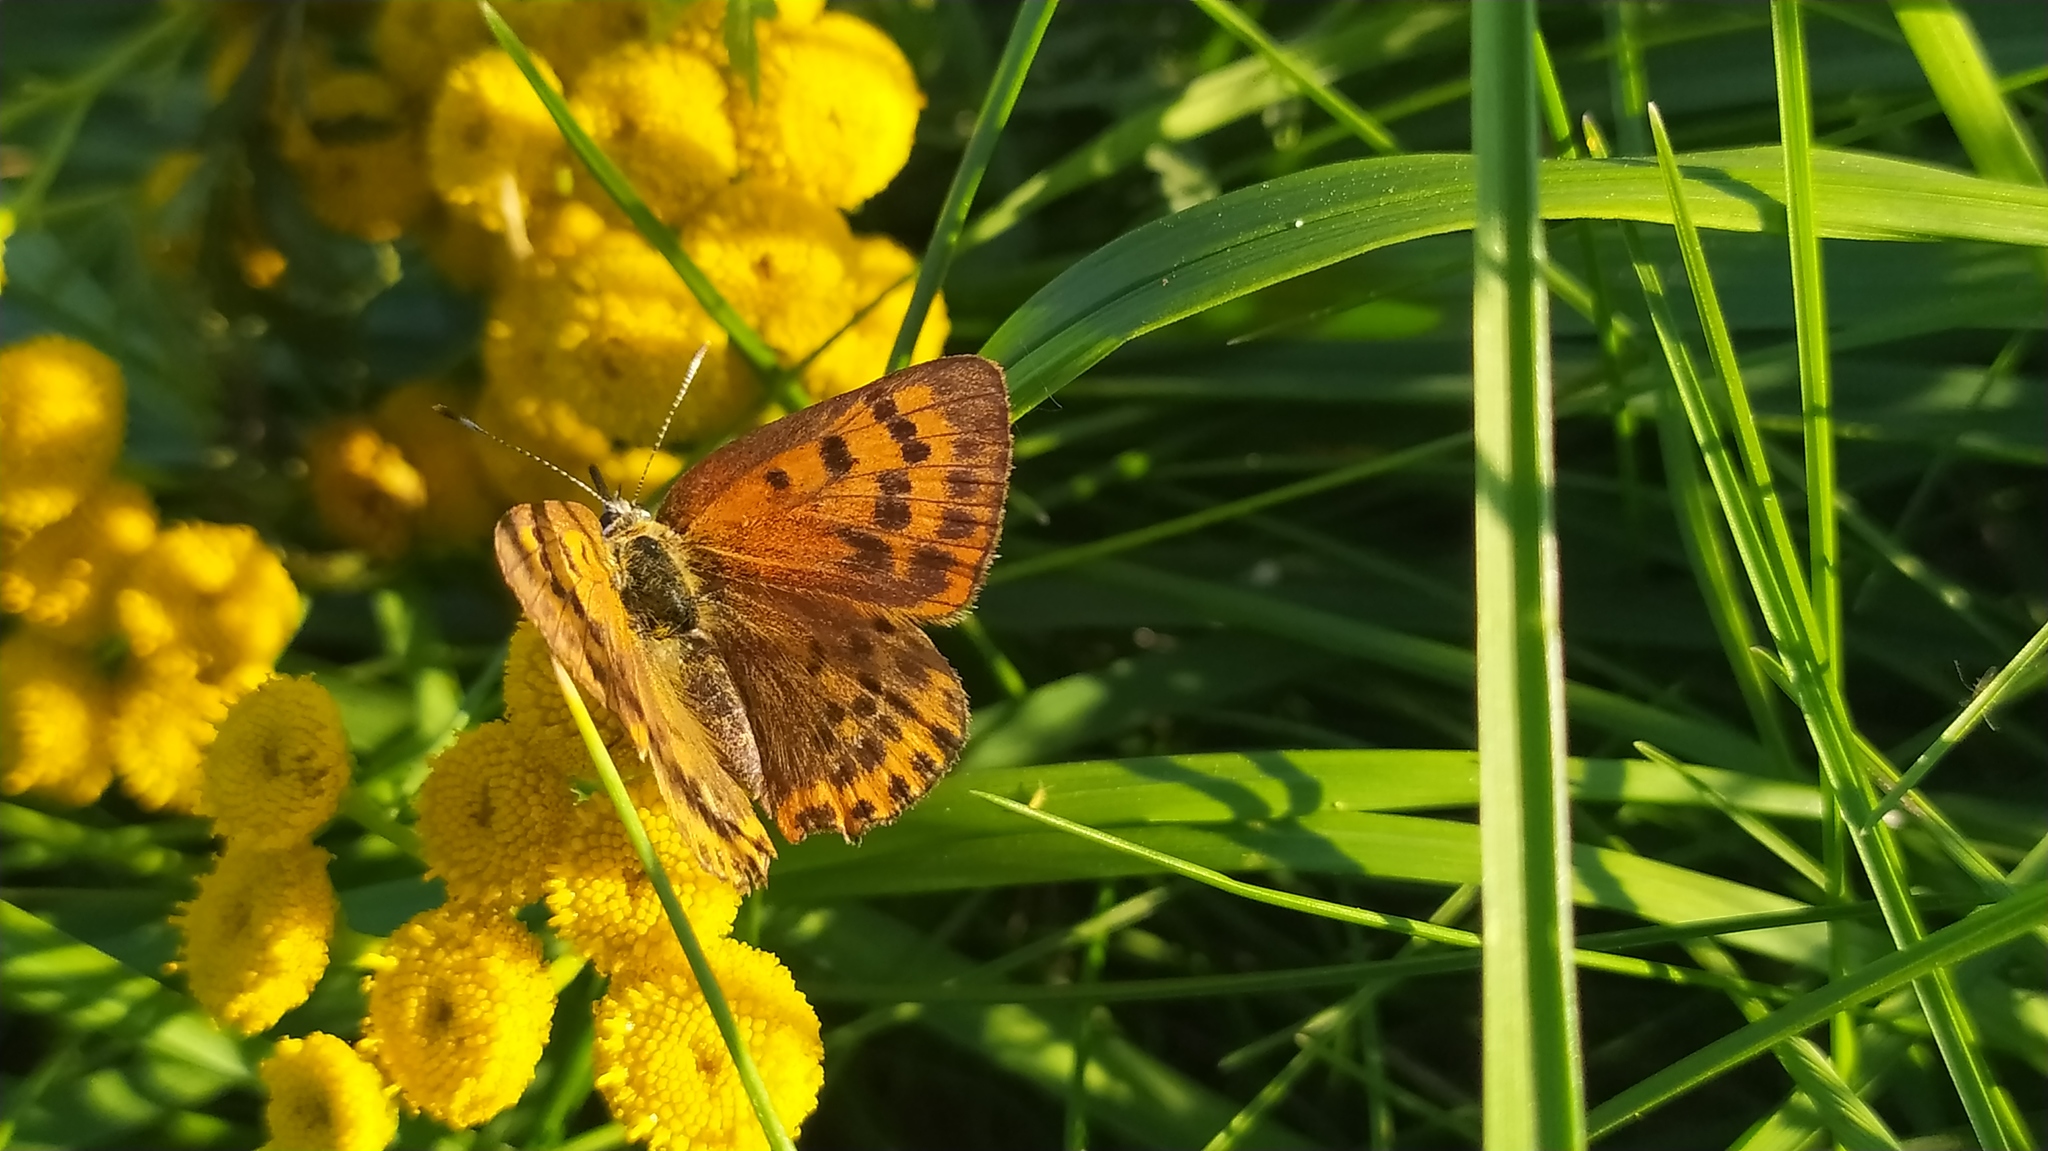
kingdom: Animalia
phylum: Arthropoda
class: Insecta
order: Lepidoptera
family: Lycaenidae
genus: Lycaena
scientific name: Lycaena virgaureae
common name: Scarce copper
